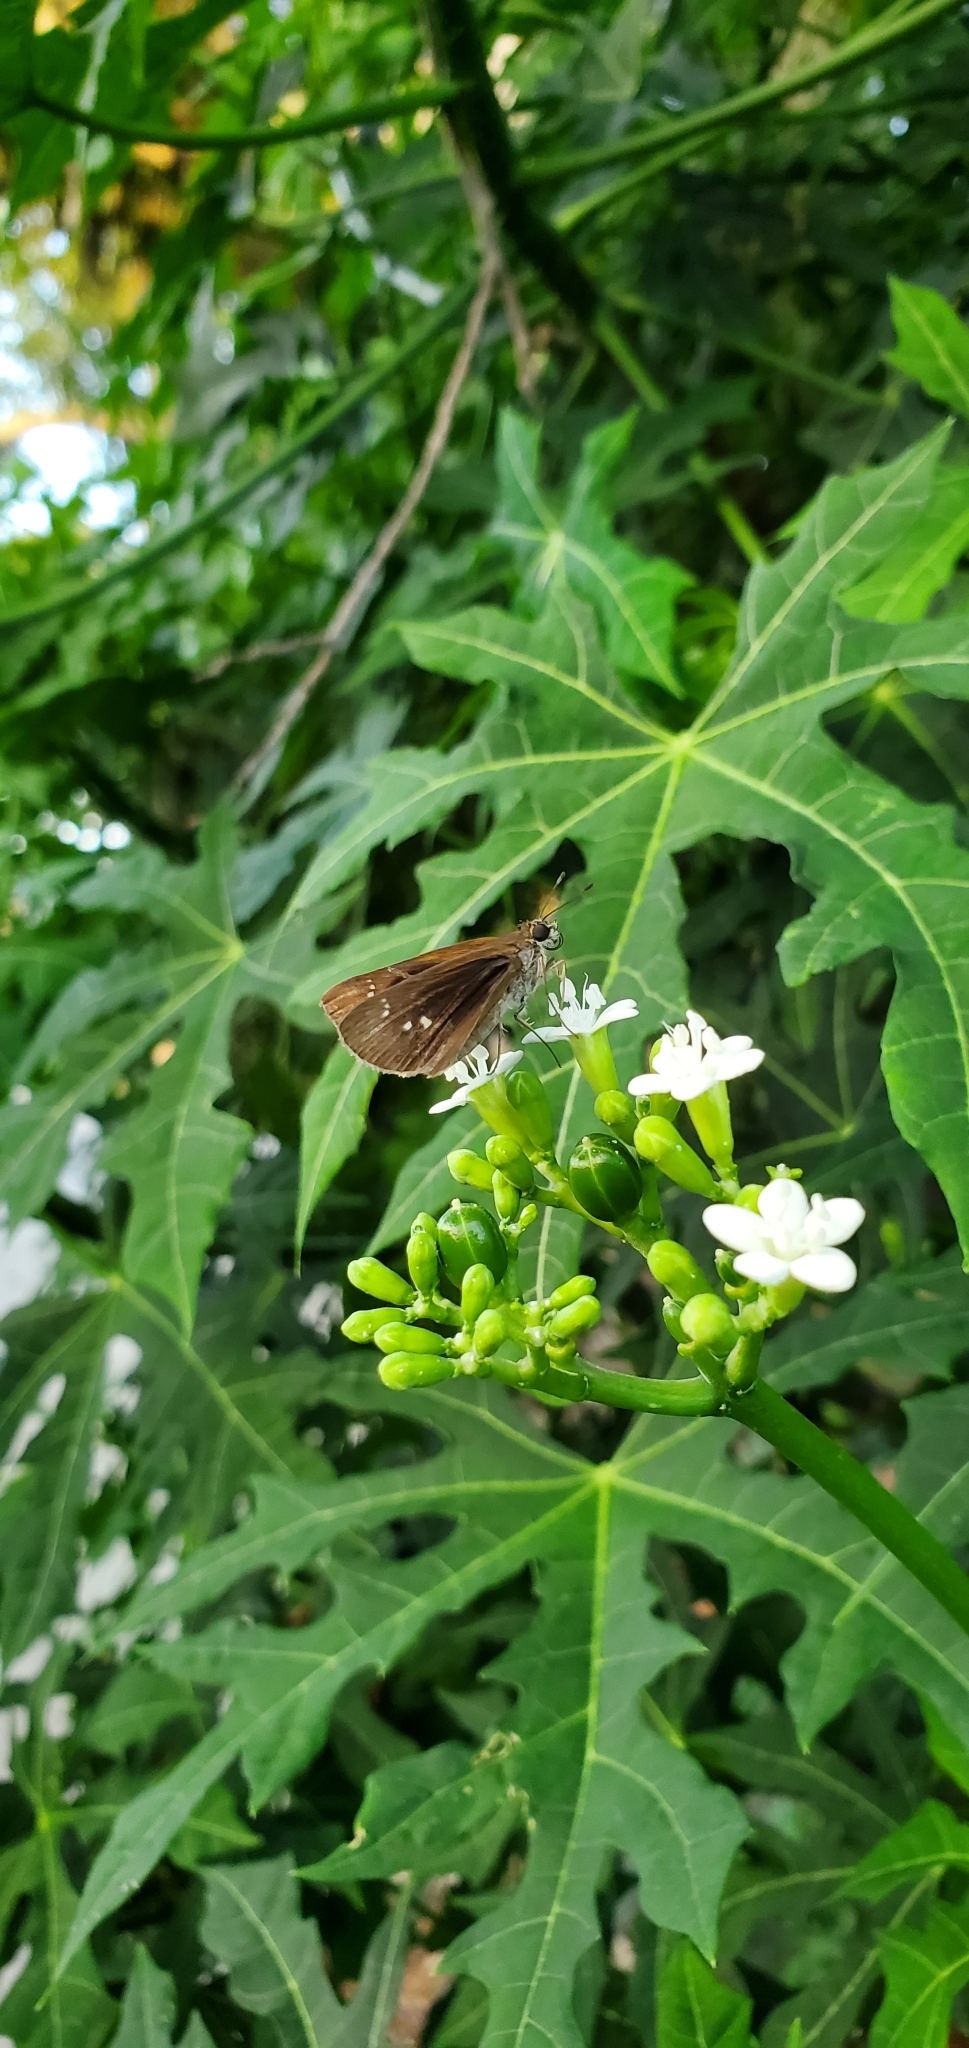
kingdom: Animalia
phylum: Arthropoda
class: Insecta
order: Lepidoptera
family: Hesperiidae
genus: Cymaenes
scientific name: Cymaenes tripunctus
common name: Dingy dotted skipper
